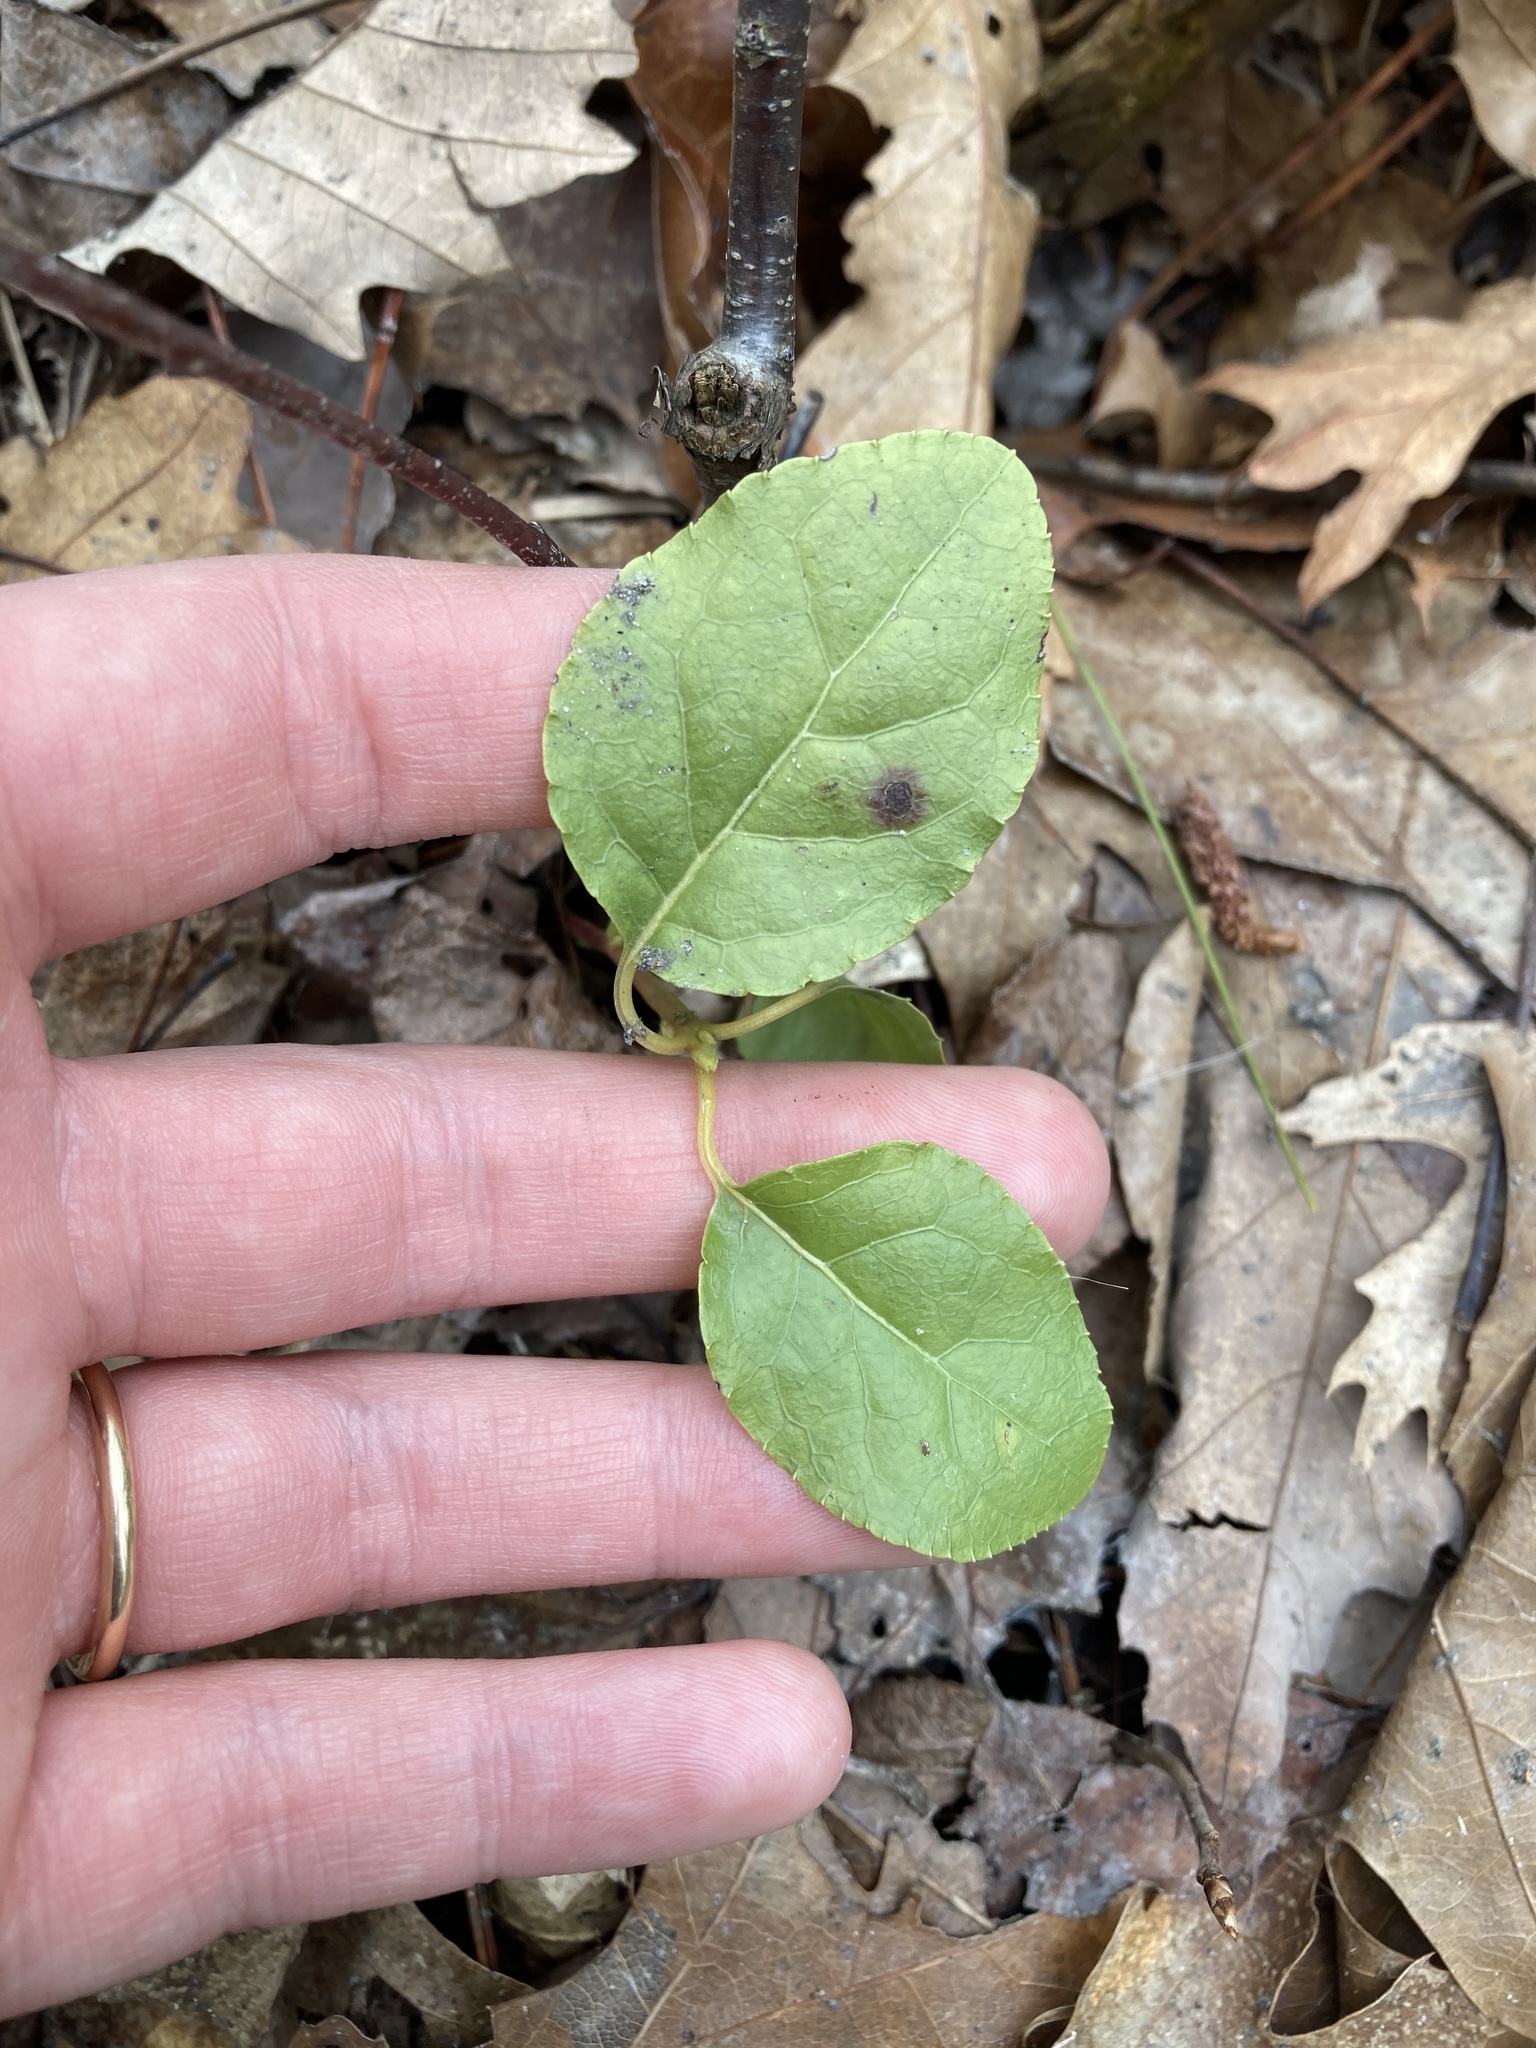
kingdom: Plantae
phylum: Tracheophyta
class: Magnoliopsida
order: Ericales
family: Ericaceae
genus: Orthilia
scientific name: Orthilia secunda
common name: One-sided orthilia
